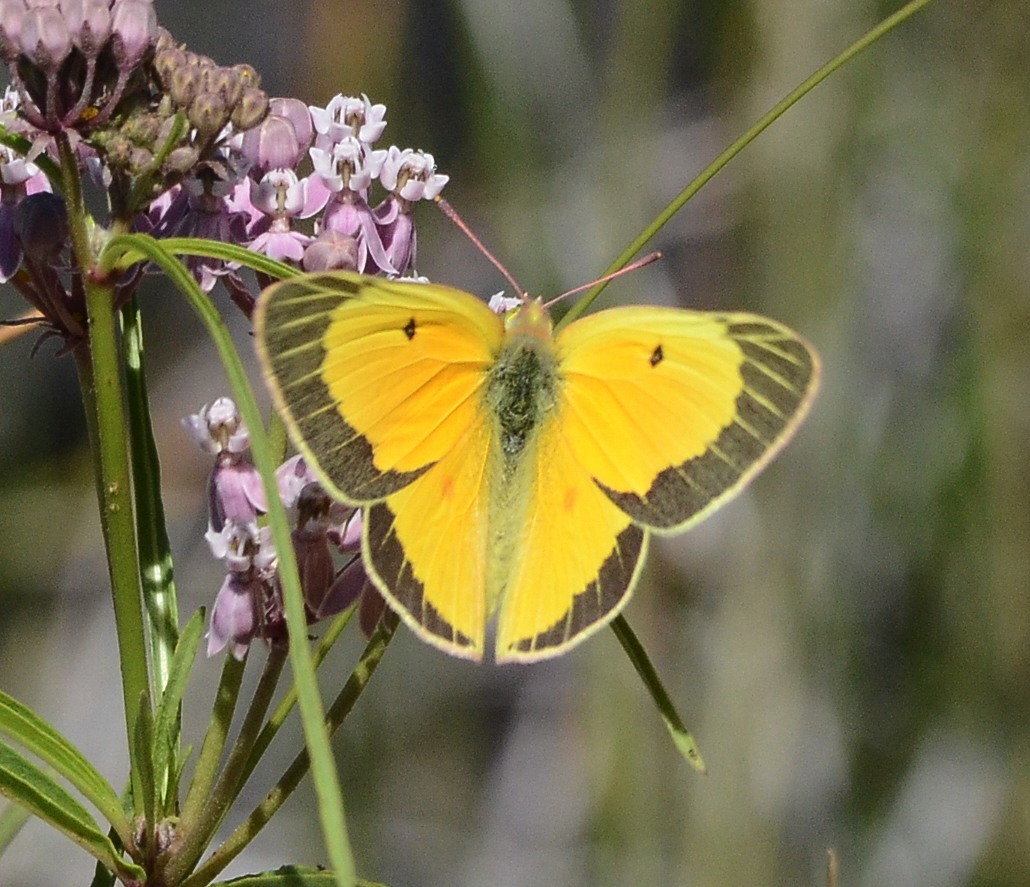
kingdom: Animalia
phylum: Arthropoda
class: Insecta
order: Lepidoptera
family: Pieridae
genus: Colias
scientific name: Colias eurytheme
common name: Alfalfa butterfly
